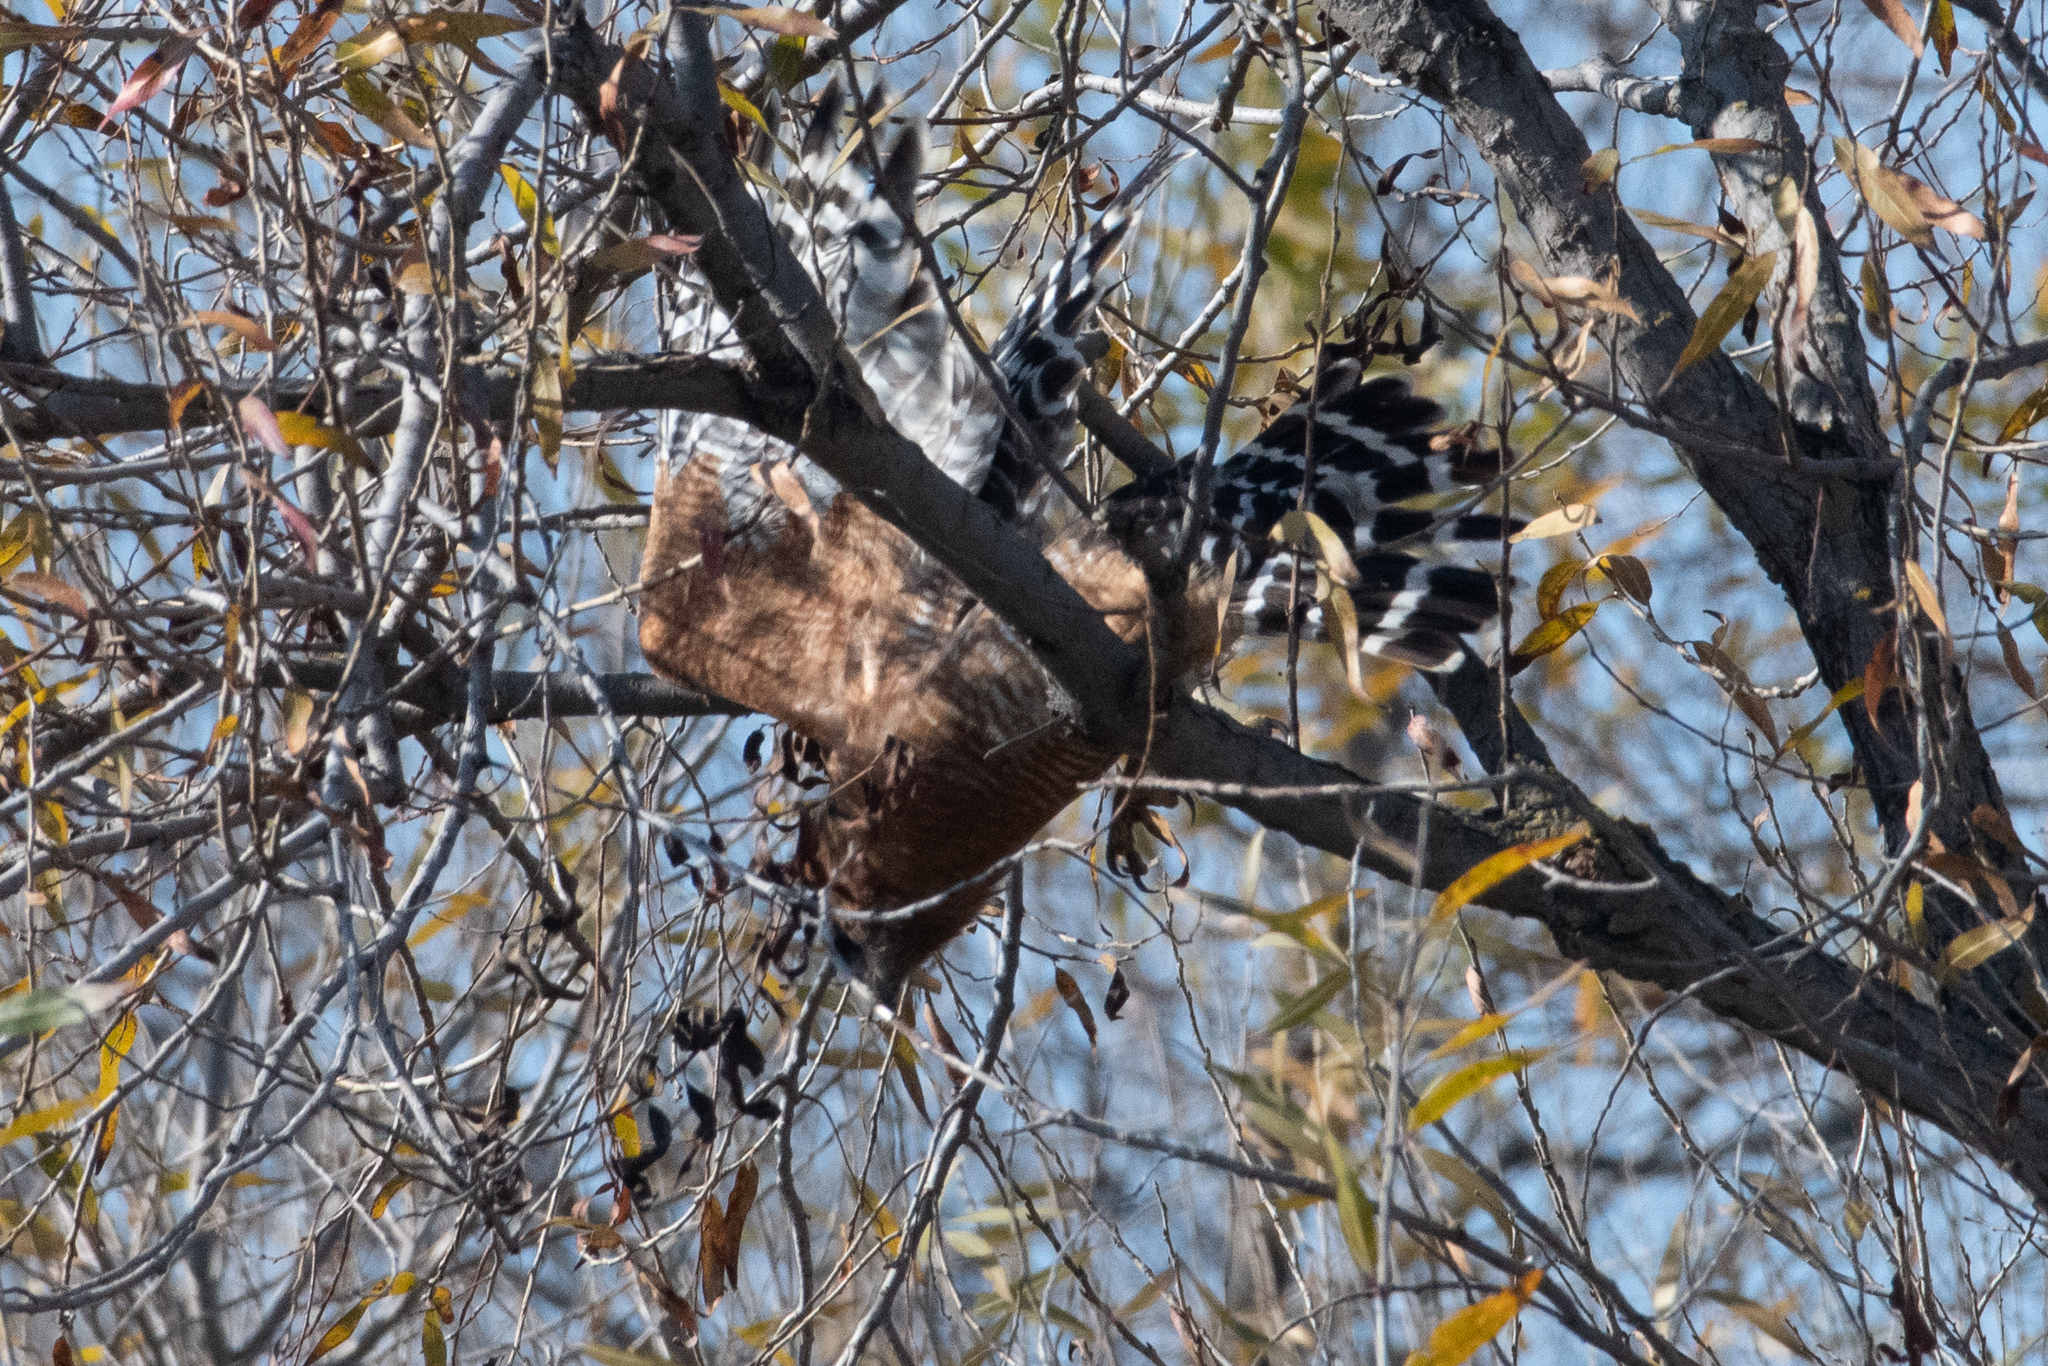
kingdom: Animalia
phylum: Chordata
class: Aves
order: Accipitriformes
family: Accipitridae
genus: Buteo
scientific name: Buteo lineatus
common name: Red-shouldered hawk
